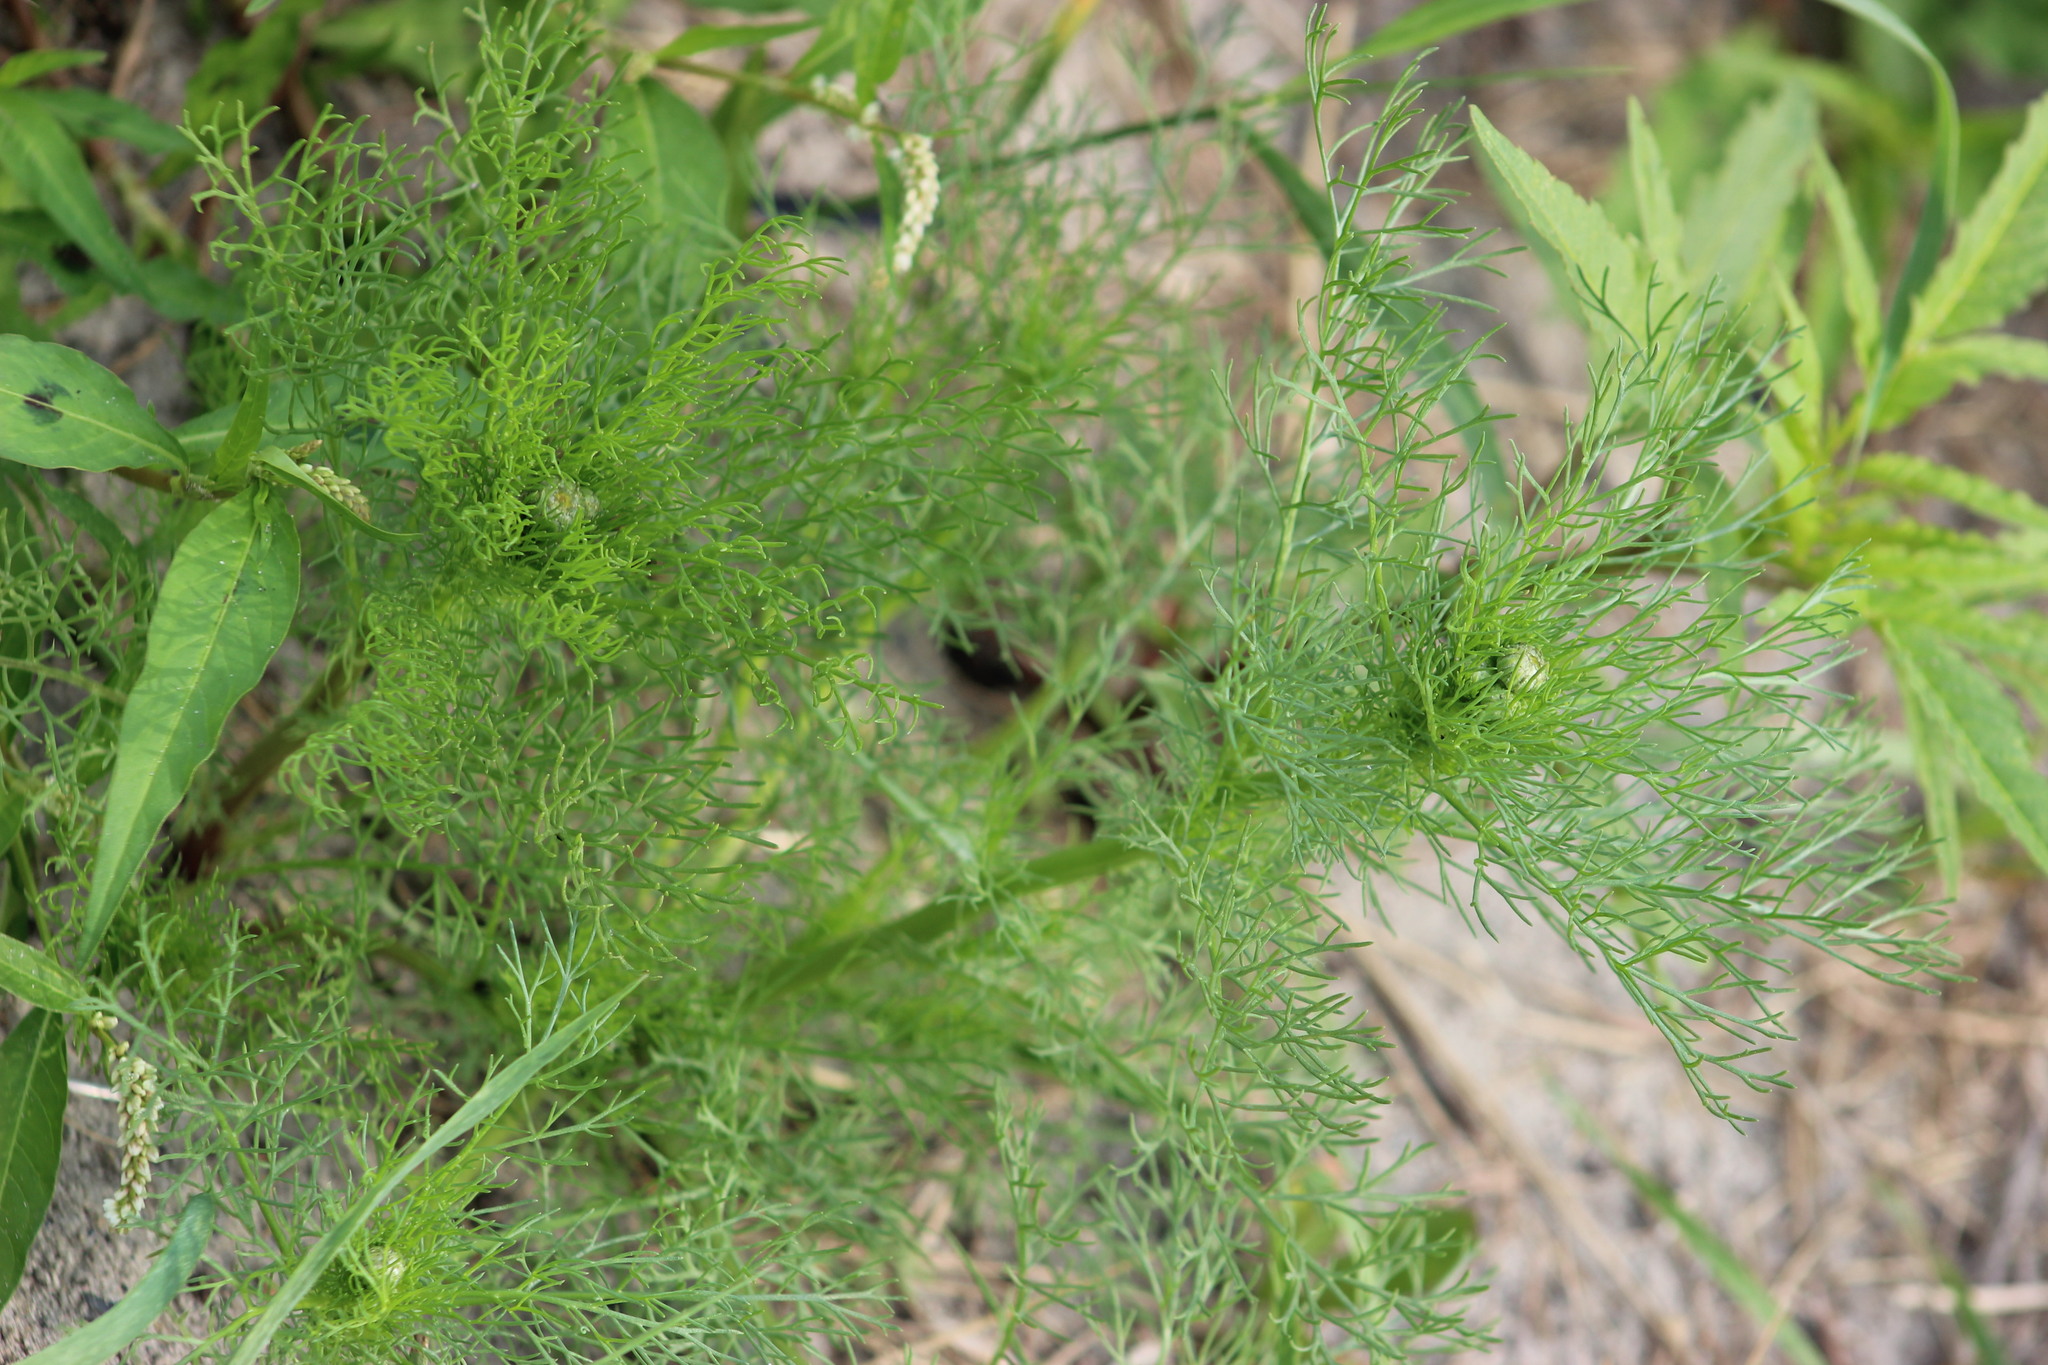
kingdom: Plantae
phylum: Tracheophyta
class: Magnoliopsida
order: Asterales
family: Asteraceae
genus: Tripleurospermum
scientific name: Tripleurospermum inodorum
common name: Scentless mayweed
